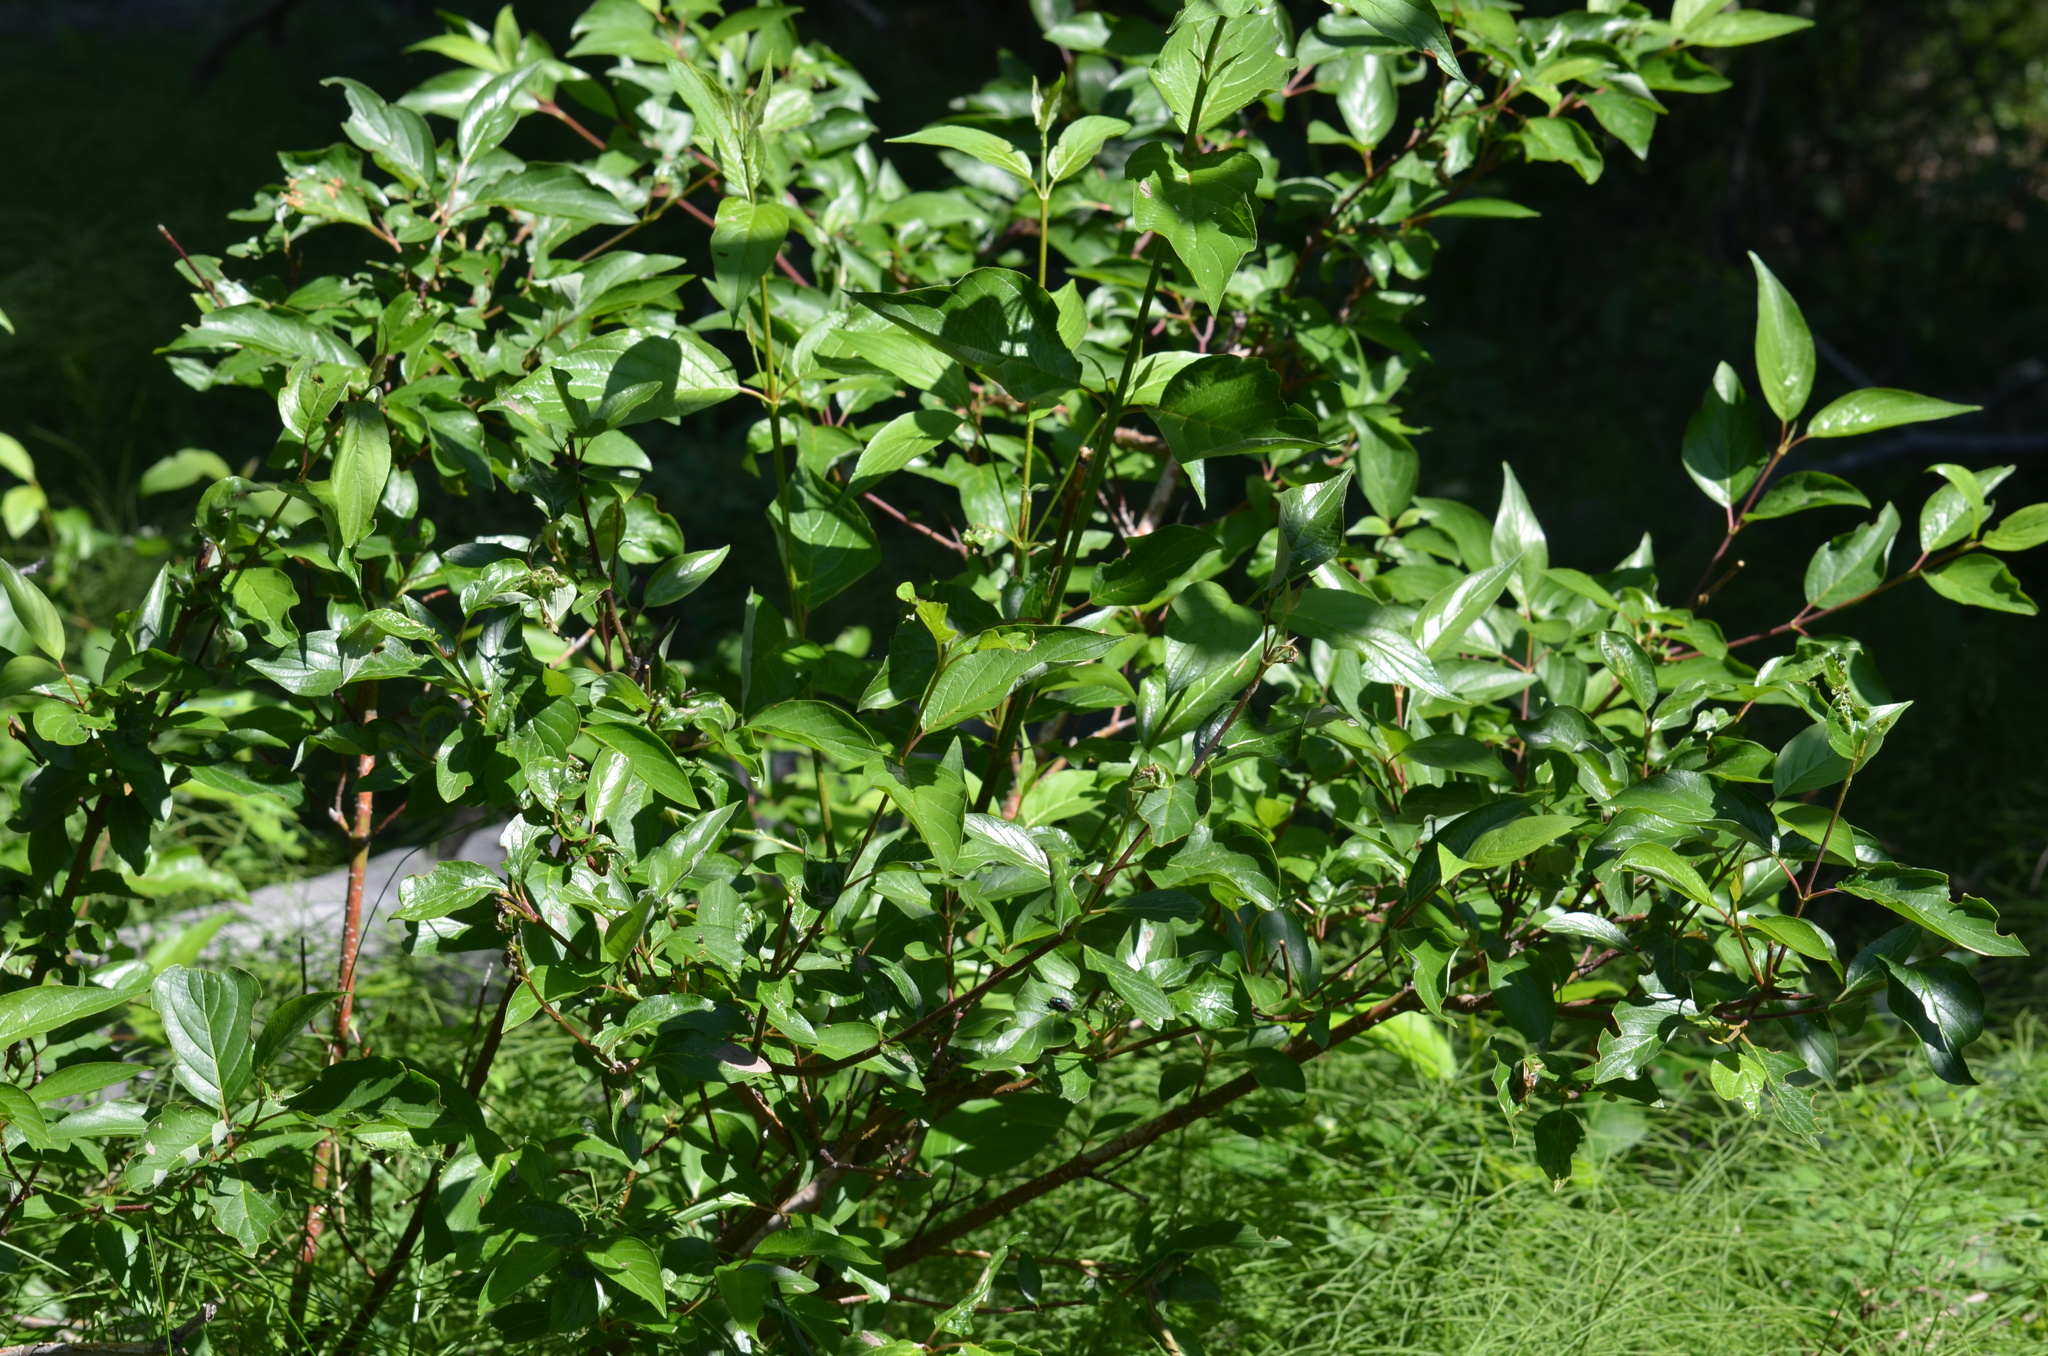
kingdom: Plantae
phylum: Tracheophyta
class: Magnoliopsida
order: Cornales
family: Cornaceae
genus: Cornus
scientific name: Cornus sericea
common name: Red-osier dogwood
